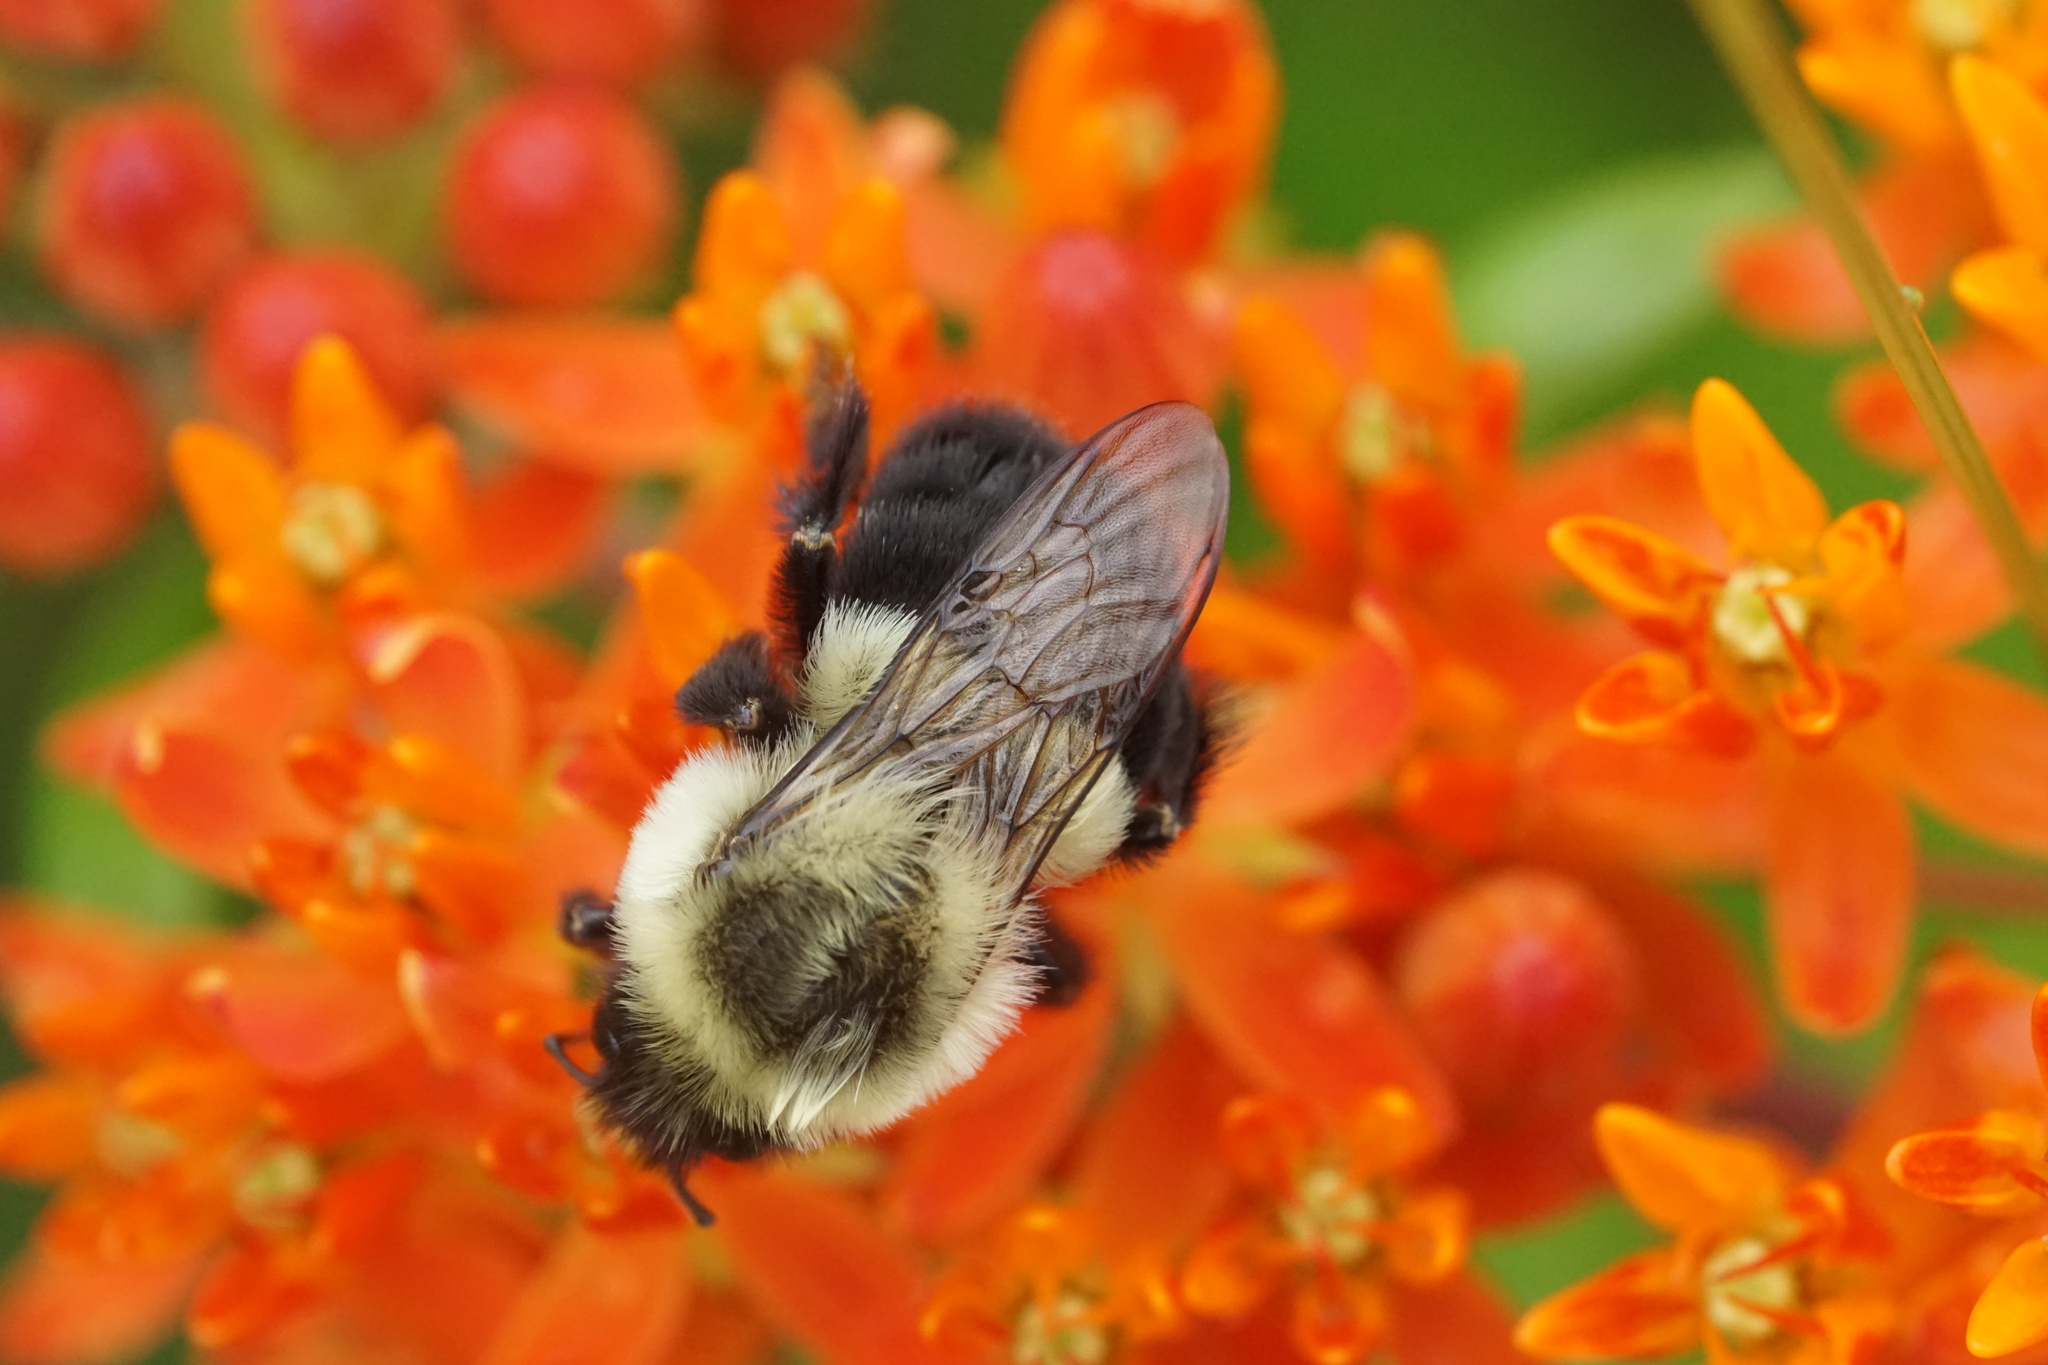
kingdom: Animalia
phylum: Arthropoda
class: Insecta
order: Hymenoptera
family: Apidae
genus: Bombus
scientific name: Bombus impatiens
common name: Common eastern bumble bee
